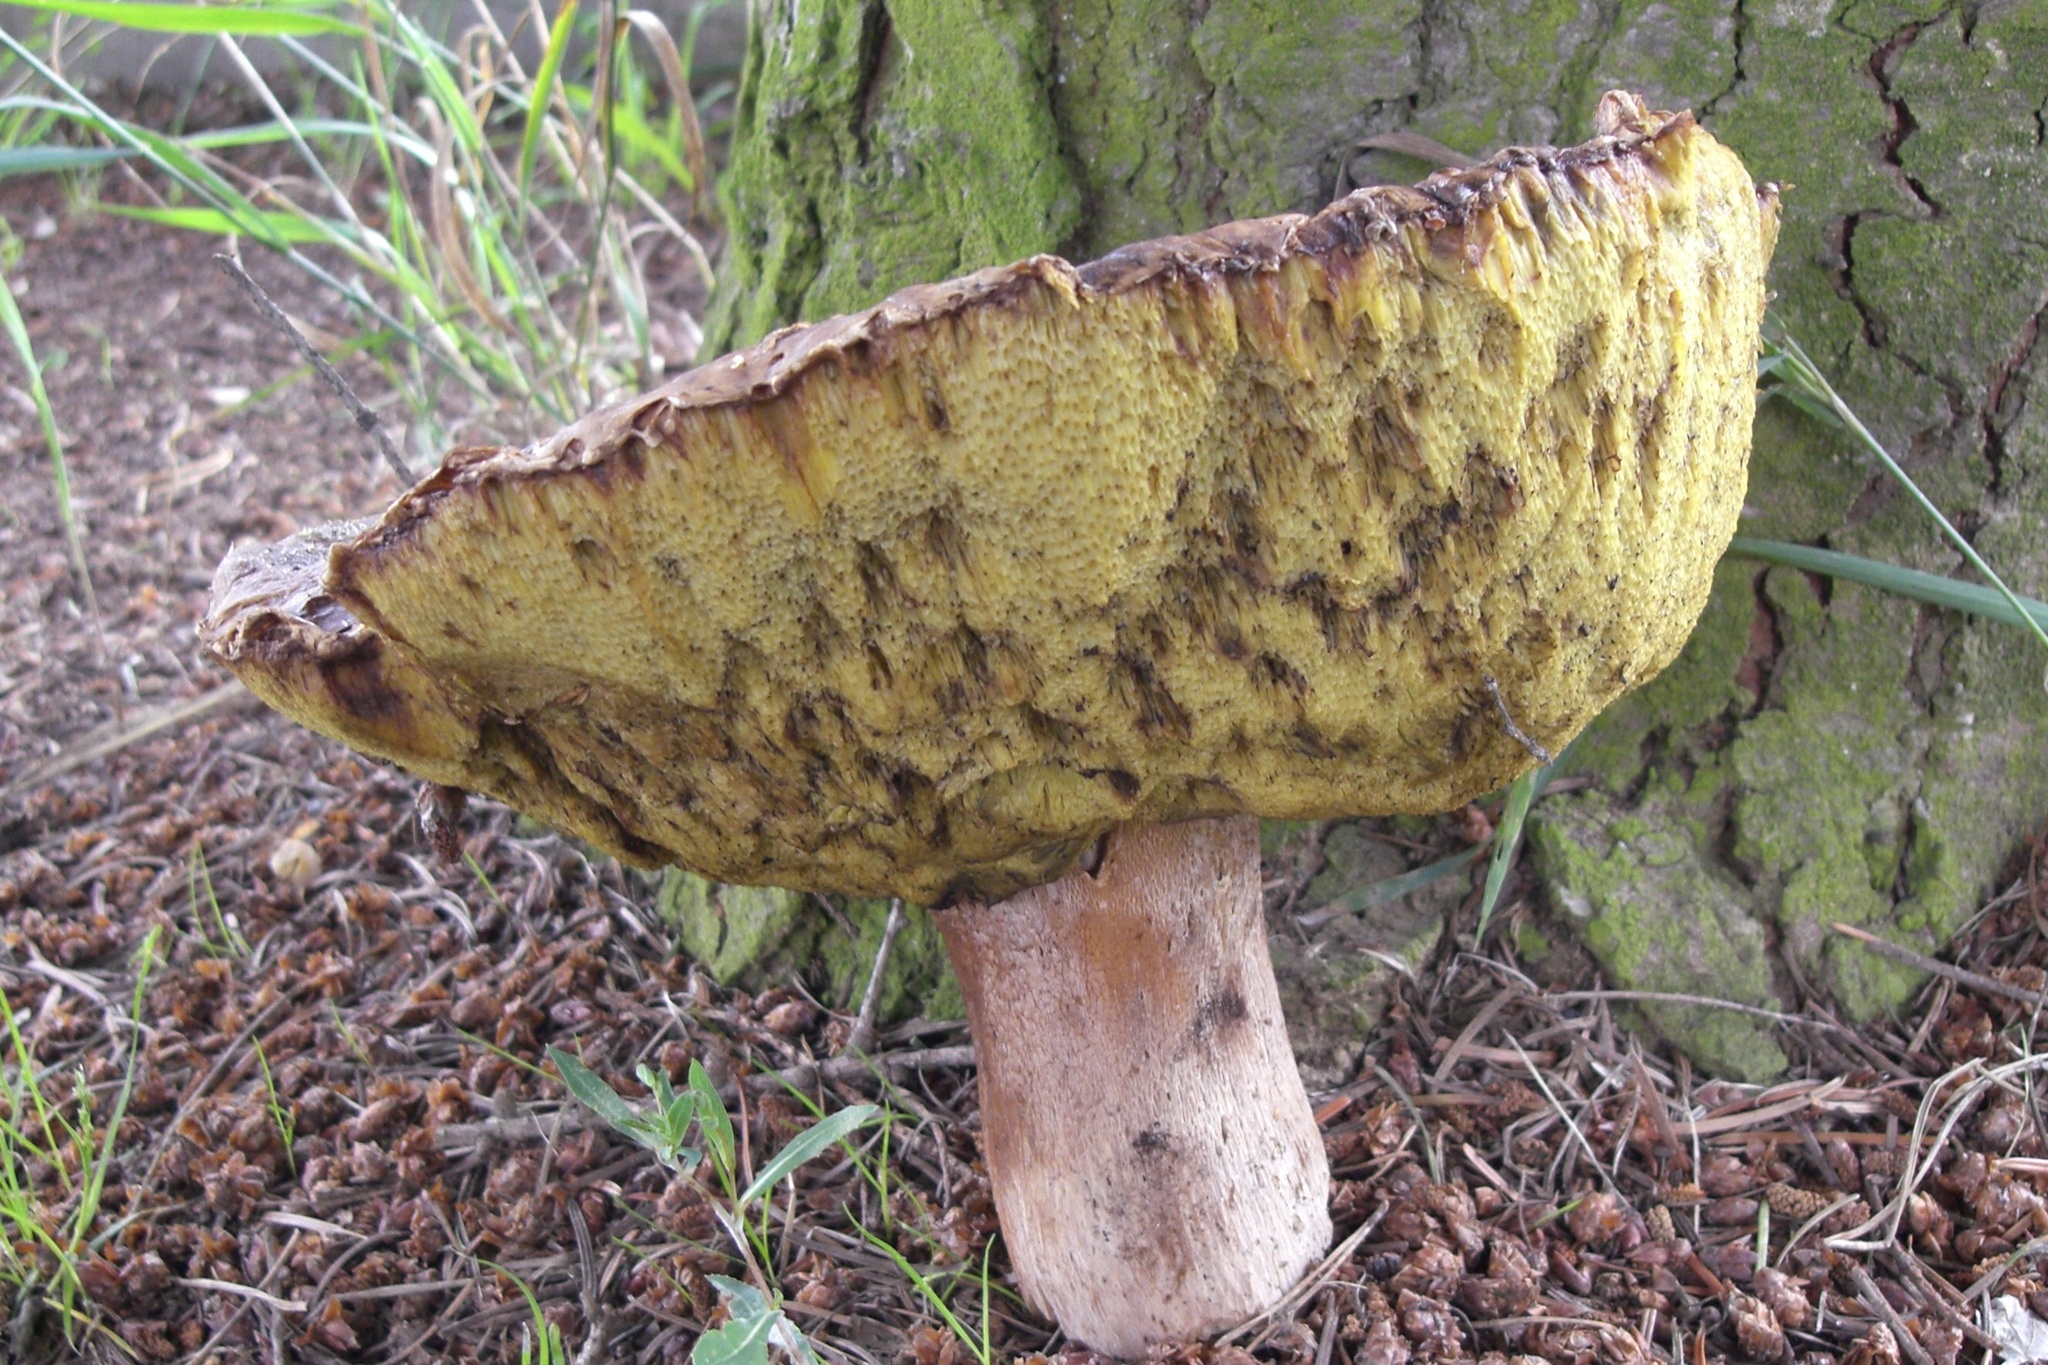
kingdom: Fungi
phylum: Basidiomycota
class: Agaricomycetes
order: Boletales
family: Boletaceae
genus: Boletus
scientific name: Boletus reticulatus
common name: Summer bolete
